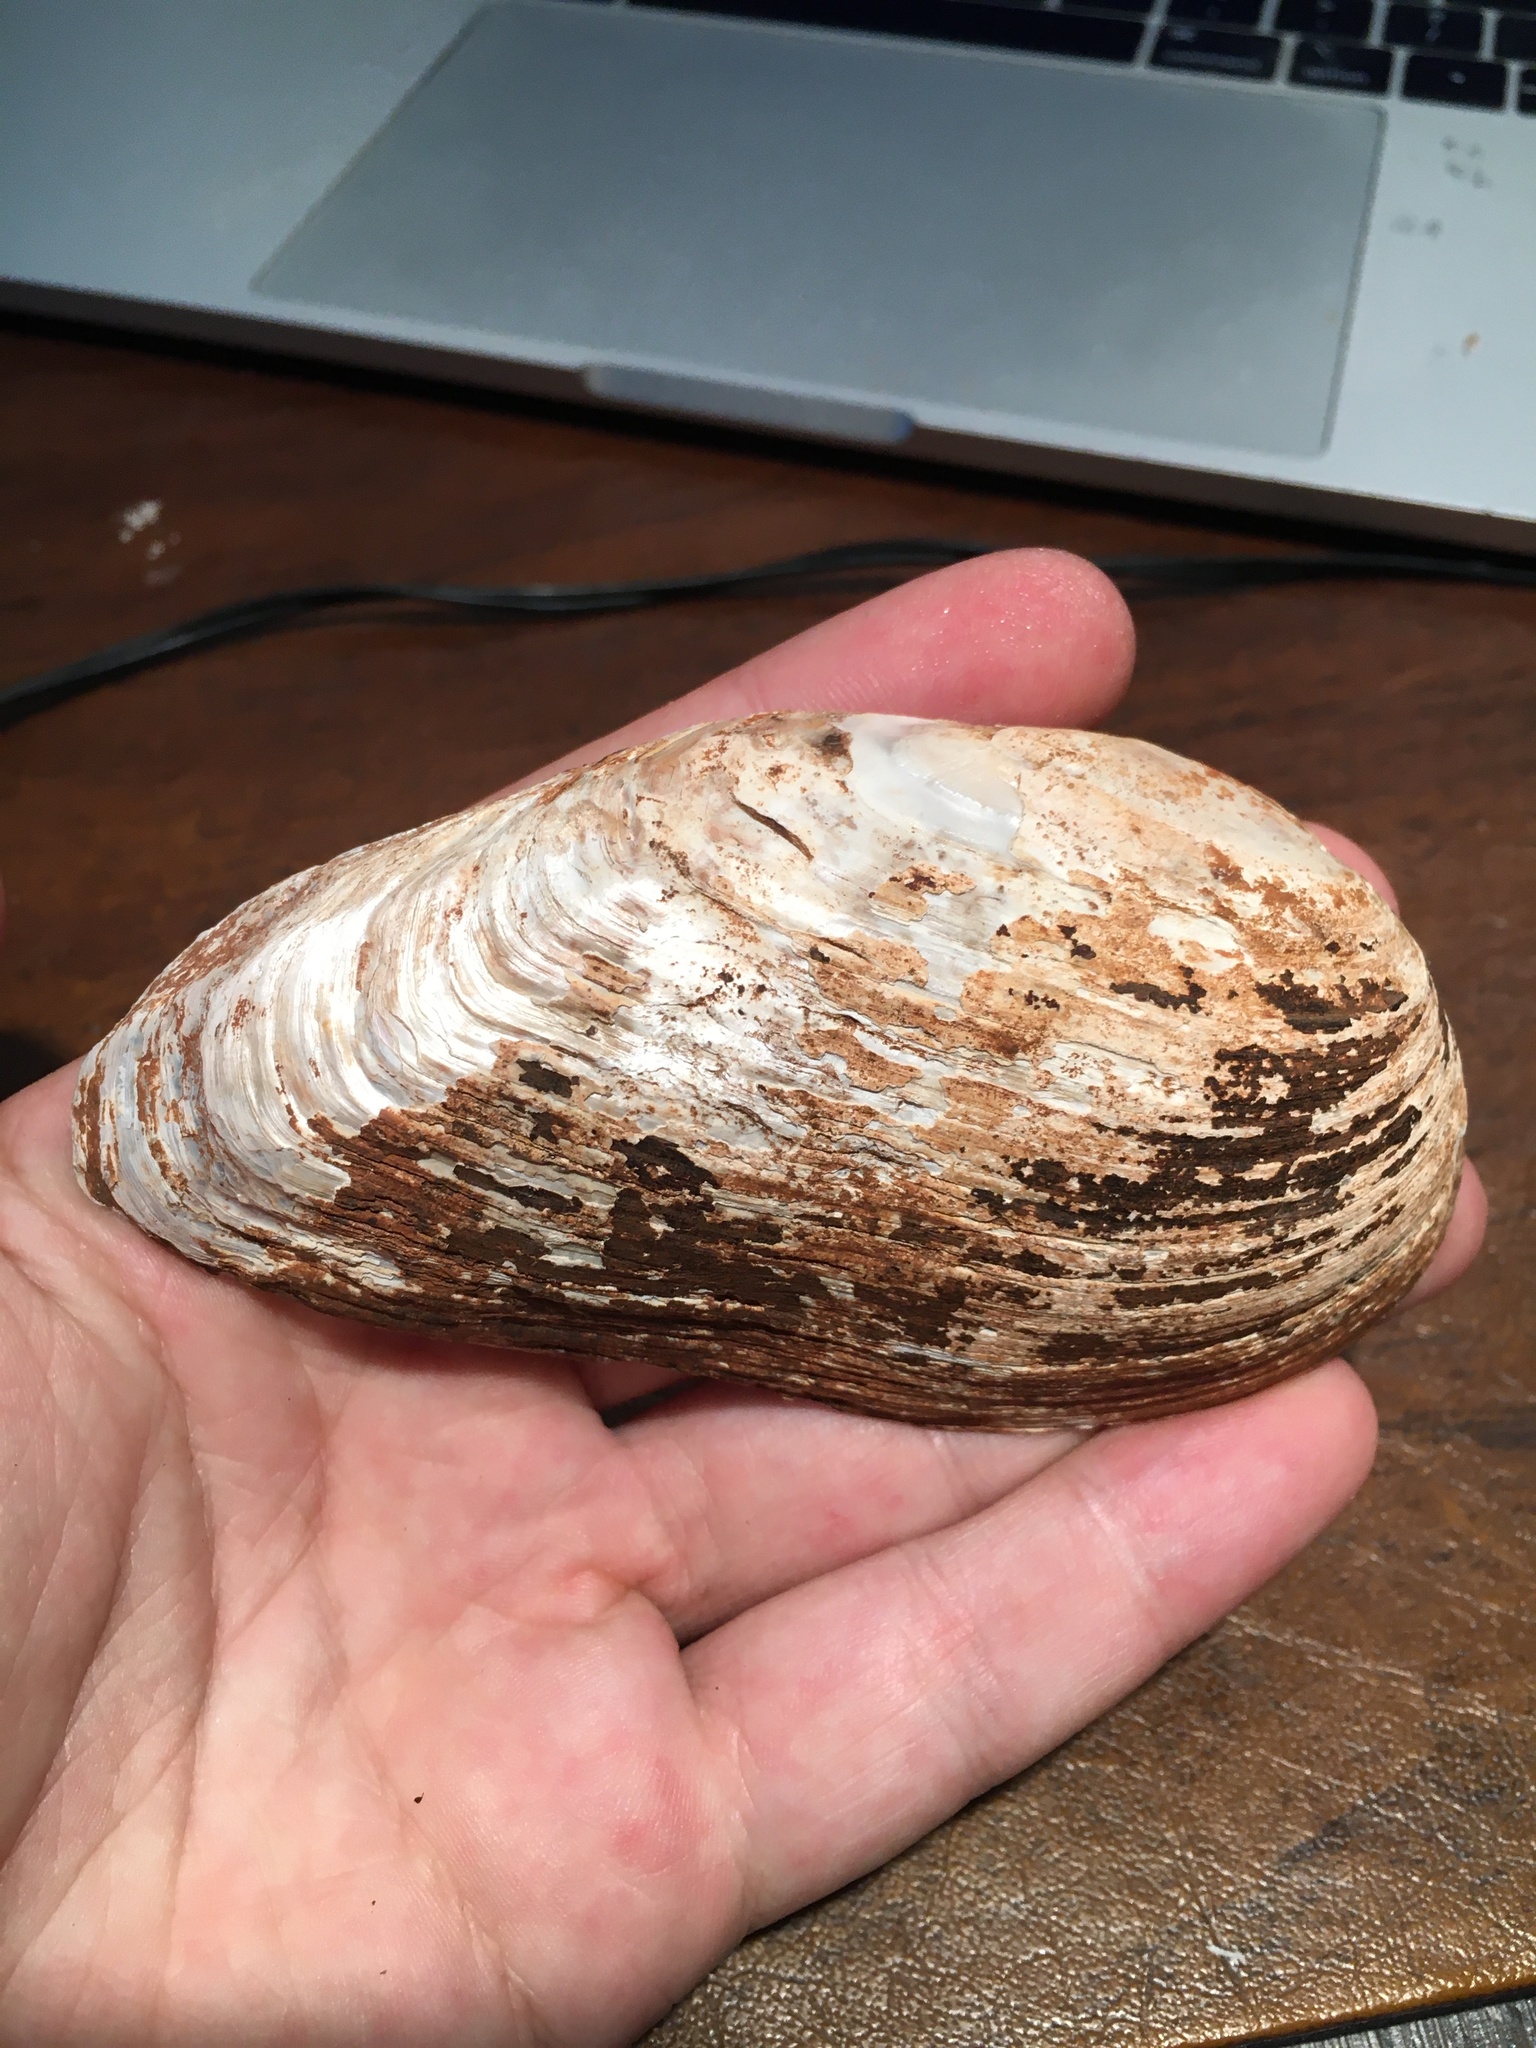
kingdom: Animalia
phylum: Mollusca
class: Bivalvia
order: Unionida
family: Unionidae
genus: Eurynia
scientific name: Eurynia dilatata
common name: Spike
